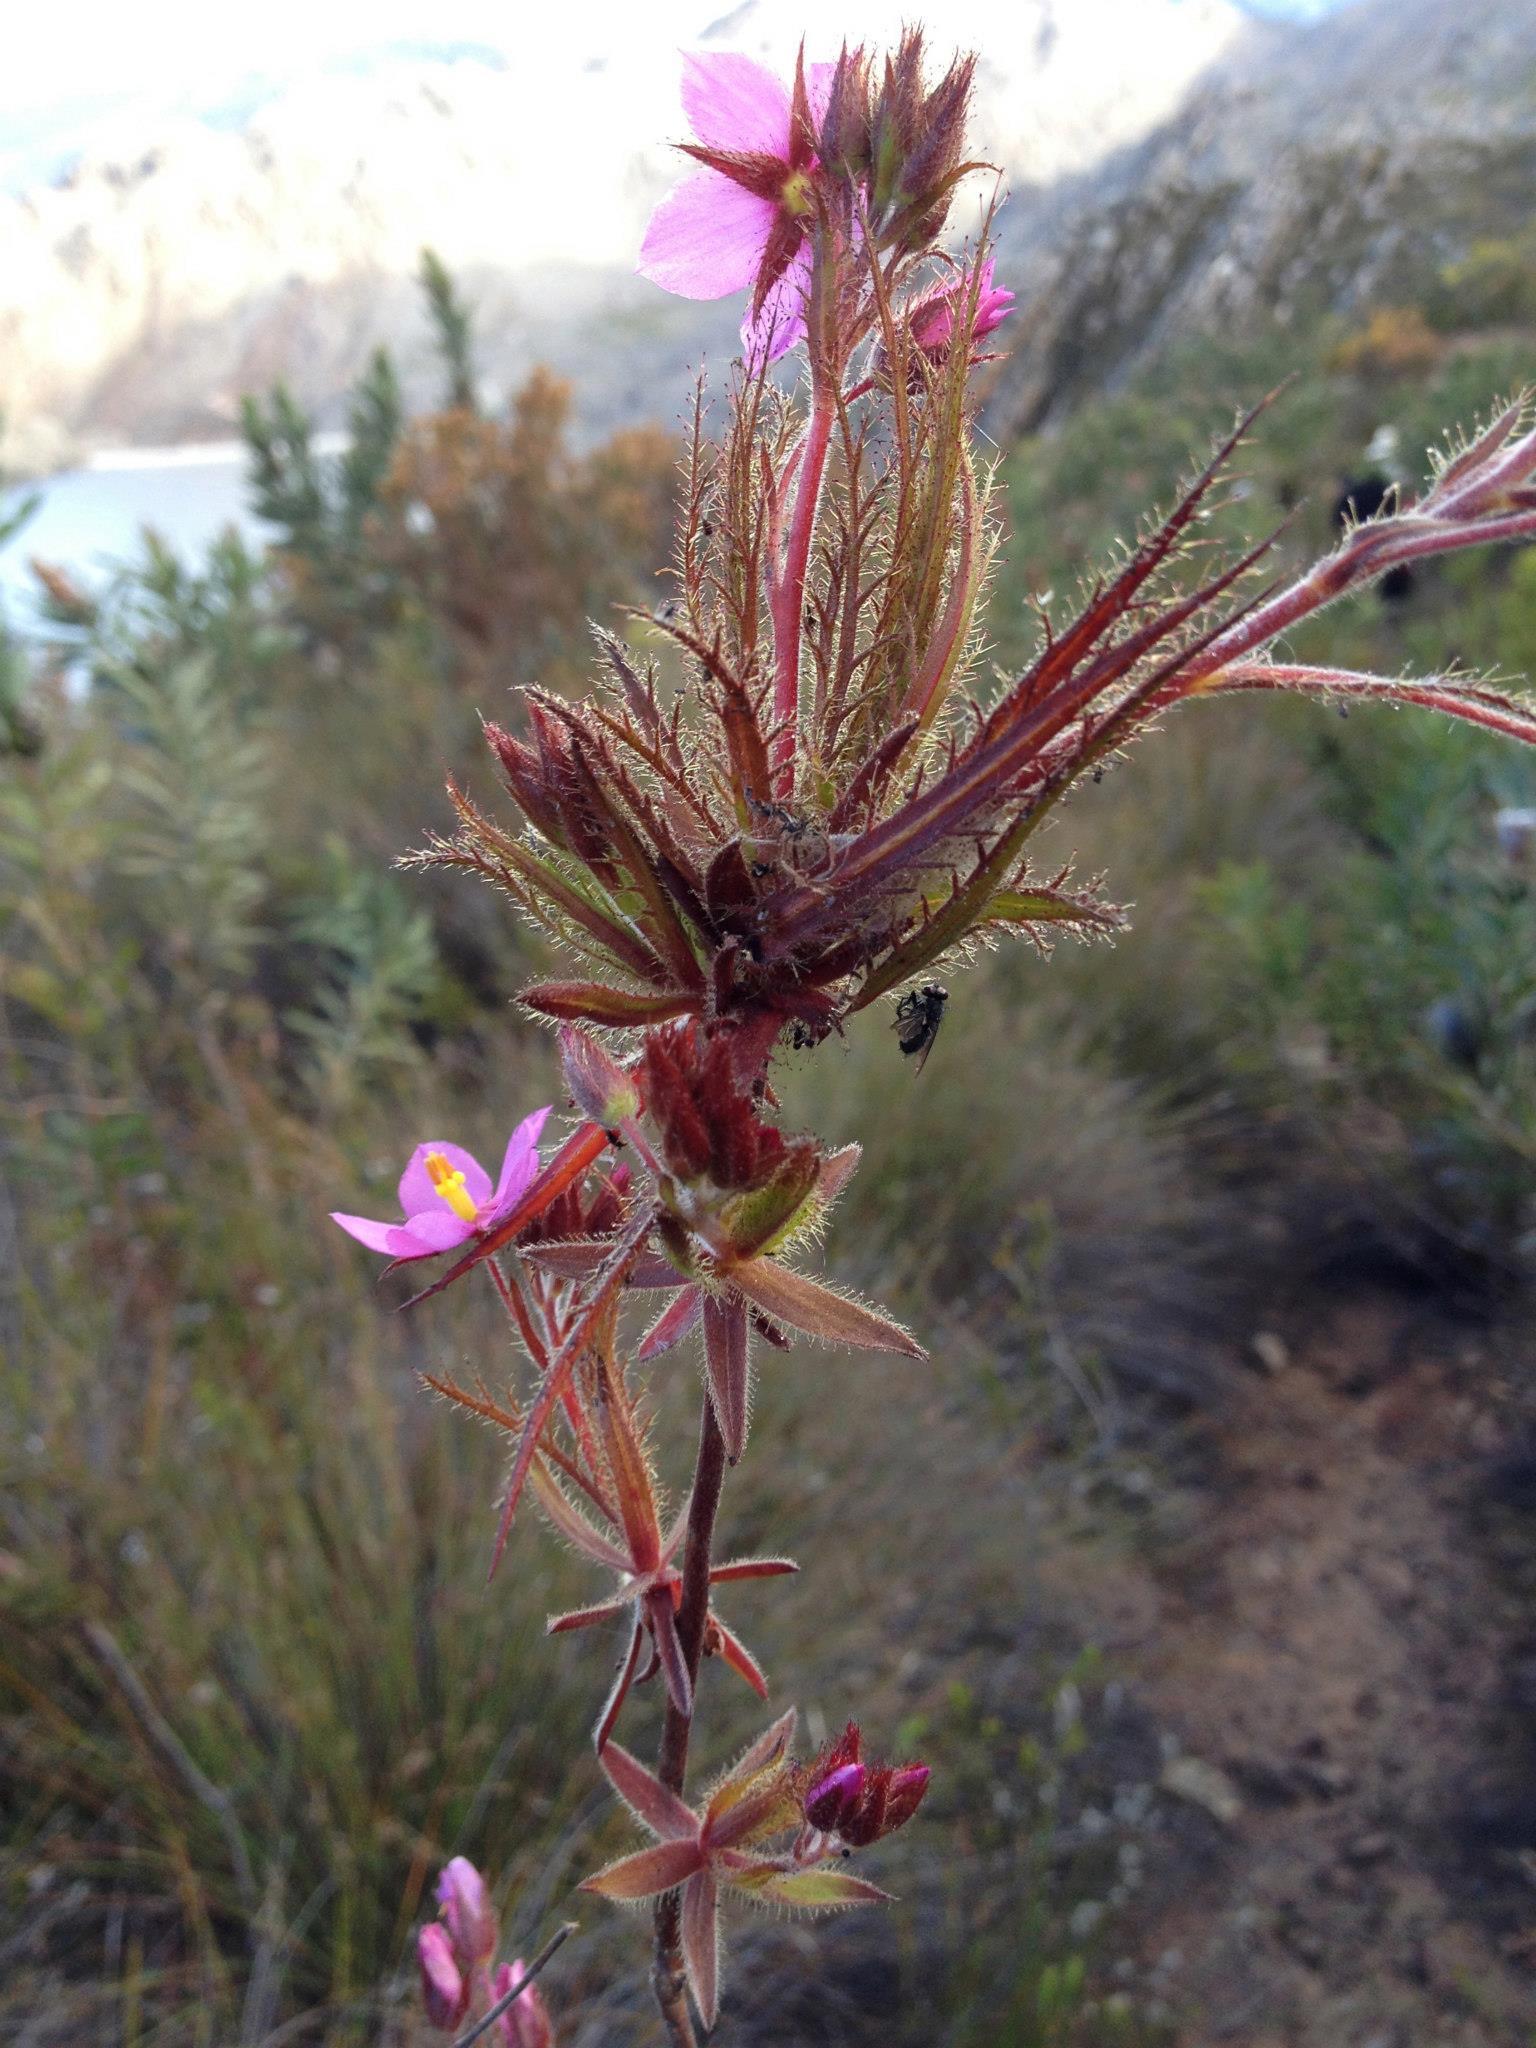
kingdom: Plantae
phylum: Tracheophyta
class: Magnoliopsida
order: Ericales
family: Roridulaceae
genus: Roridula
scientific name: Roridula dentata
